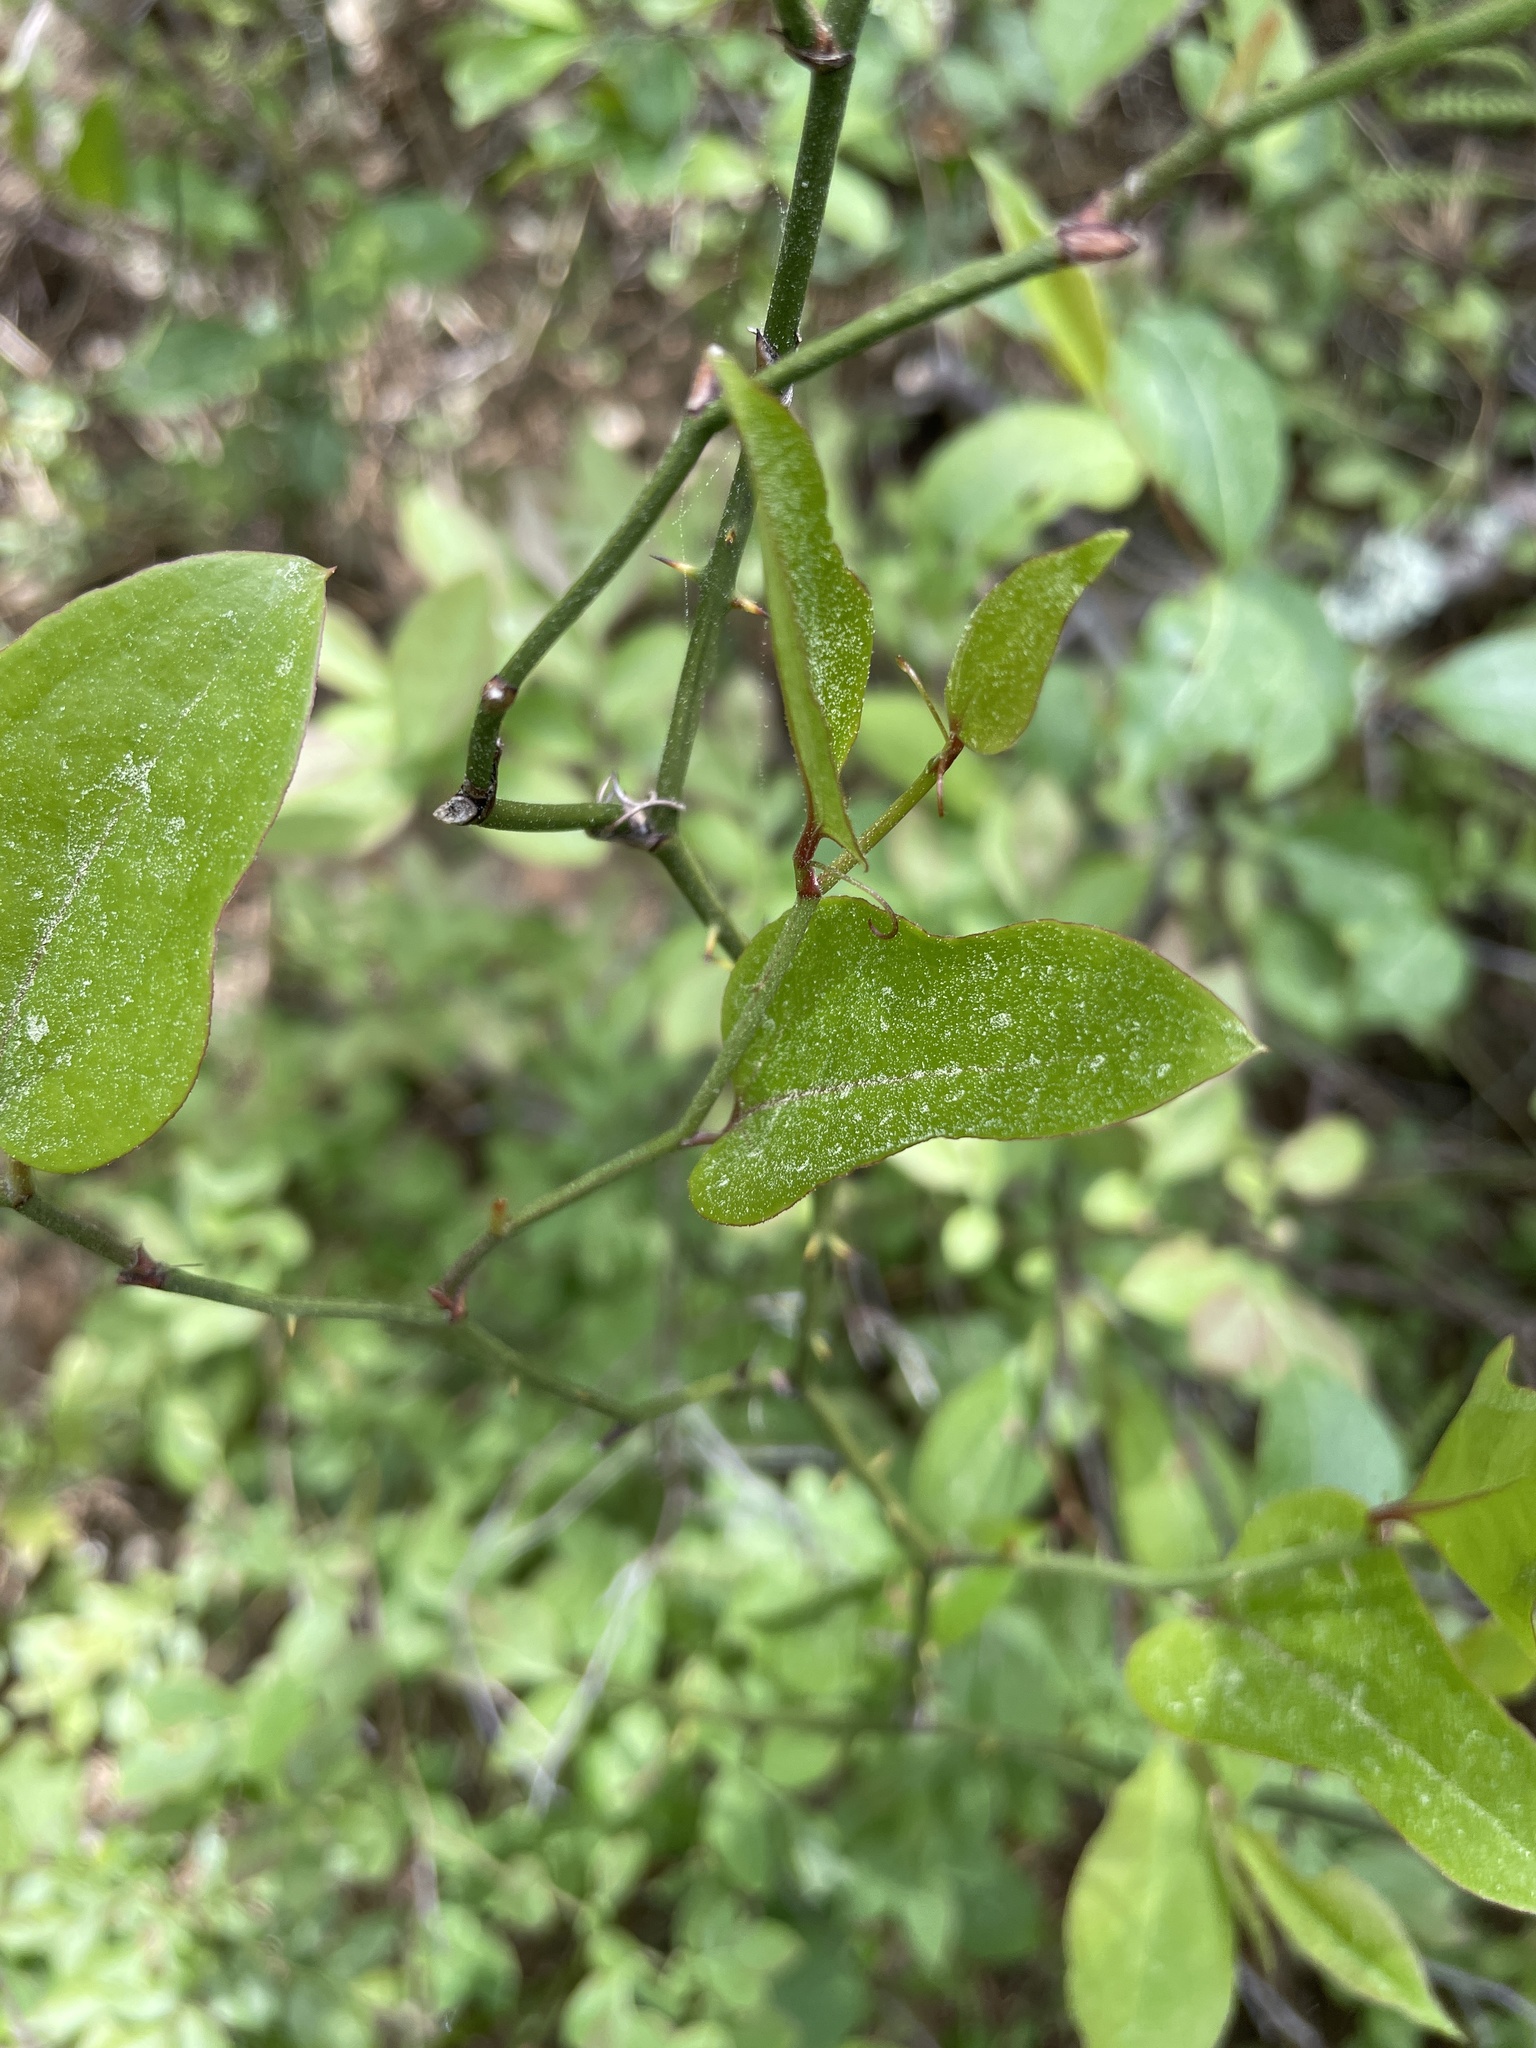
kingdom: Plantae
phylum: Tracheophyta
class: Liliopsida
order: Liliales
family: Smilacaceae
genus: Smilax
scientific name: Smilax rotundifolia
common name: Bullbriar
